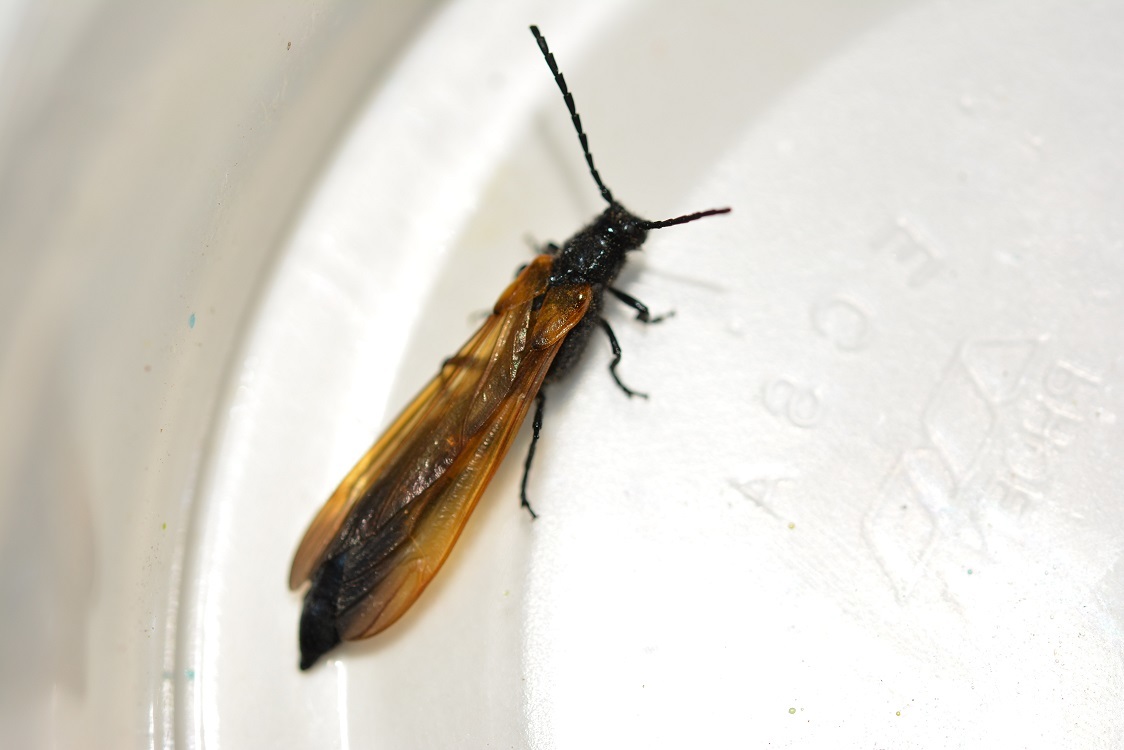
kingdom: Animalia
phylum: Arthropoda
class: Insecta
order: Coleoptera
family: Cerambycidae
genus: Rhathymoscelis
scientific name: Rhathymoscelis batesi
